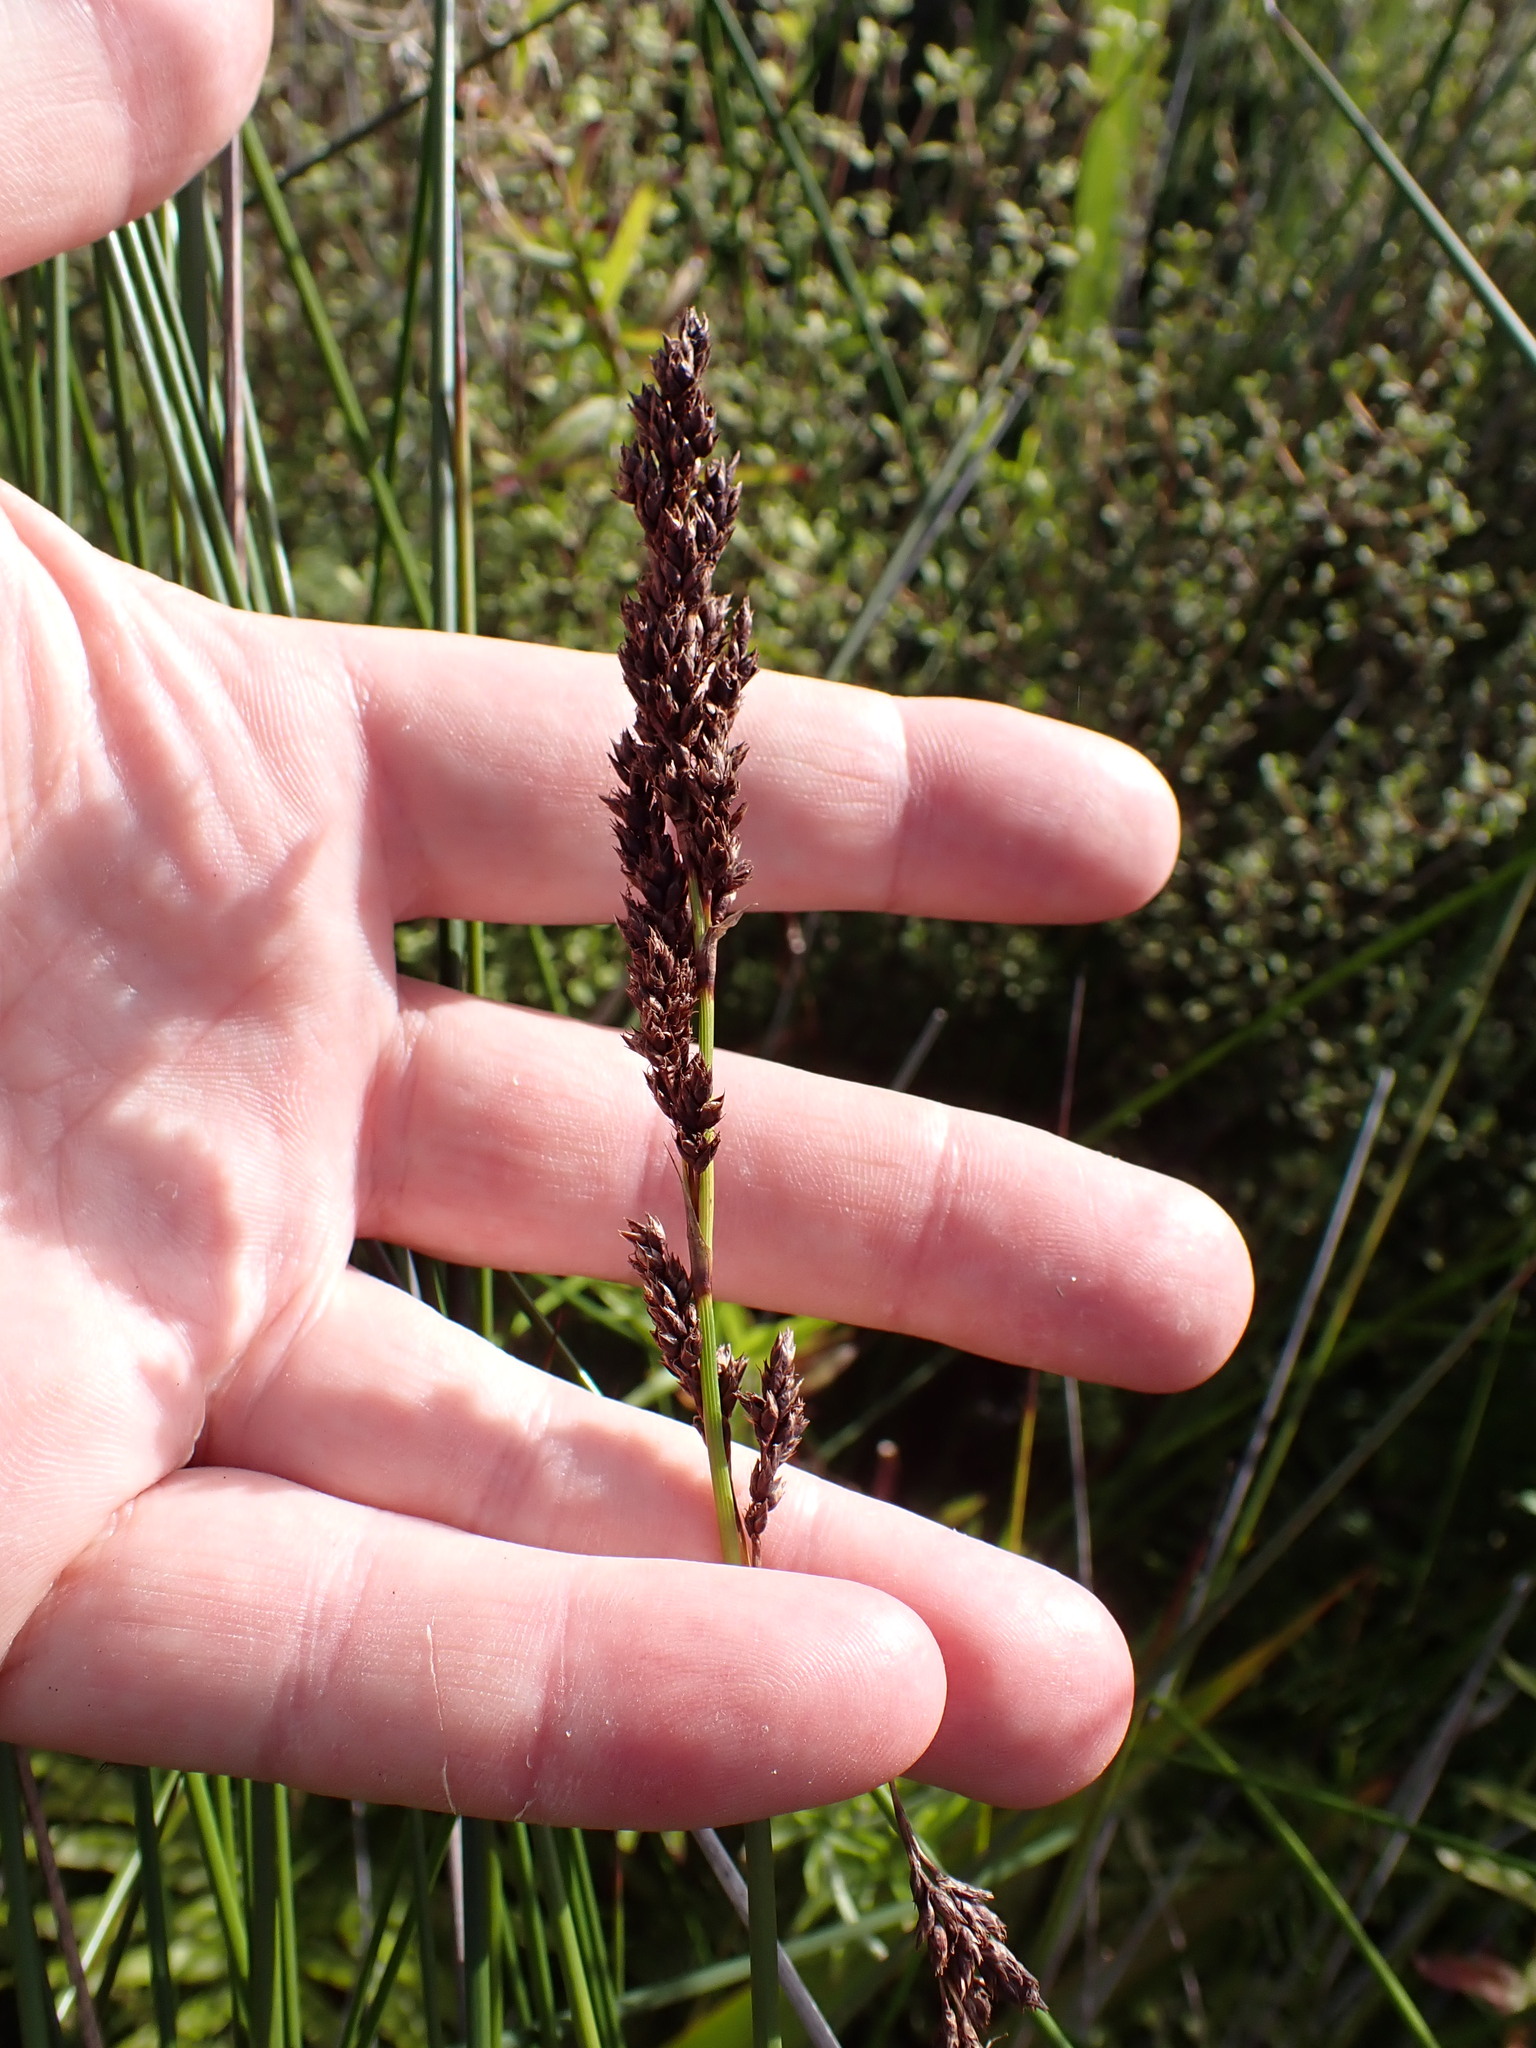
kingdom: Plantae
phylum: Tracheophyta
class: Liliopsida
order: Poales
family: Cyperaceae
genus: Machaerina
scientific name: Machaerina teretifolia
